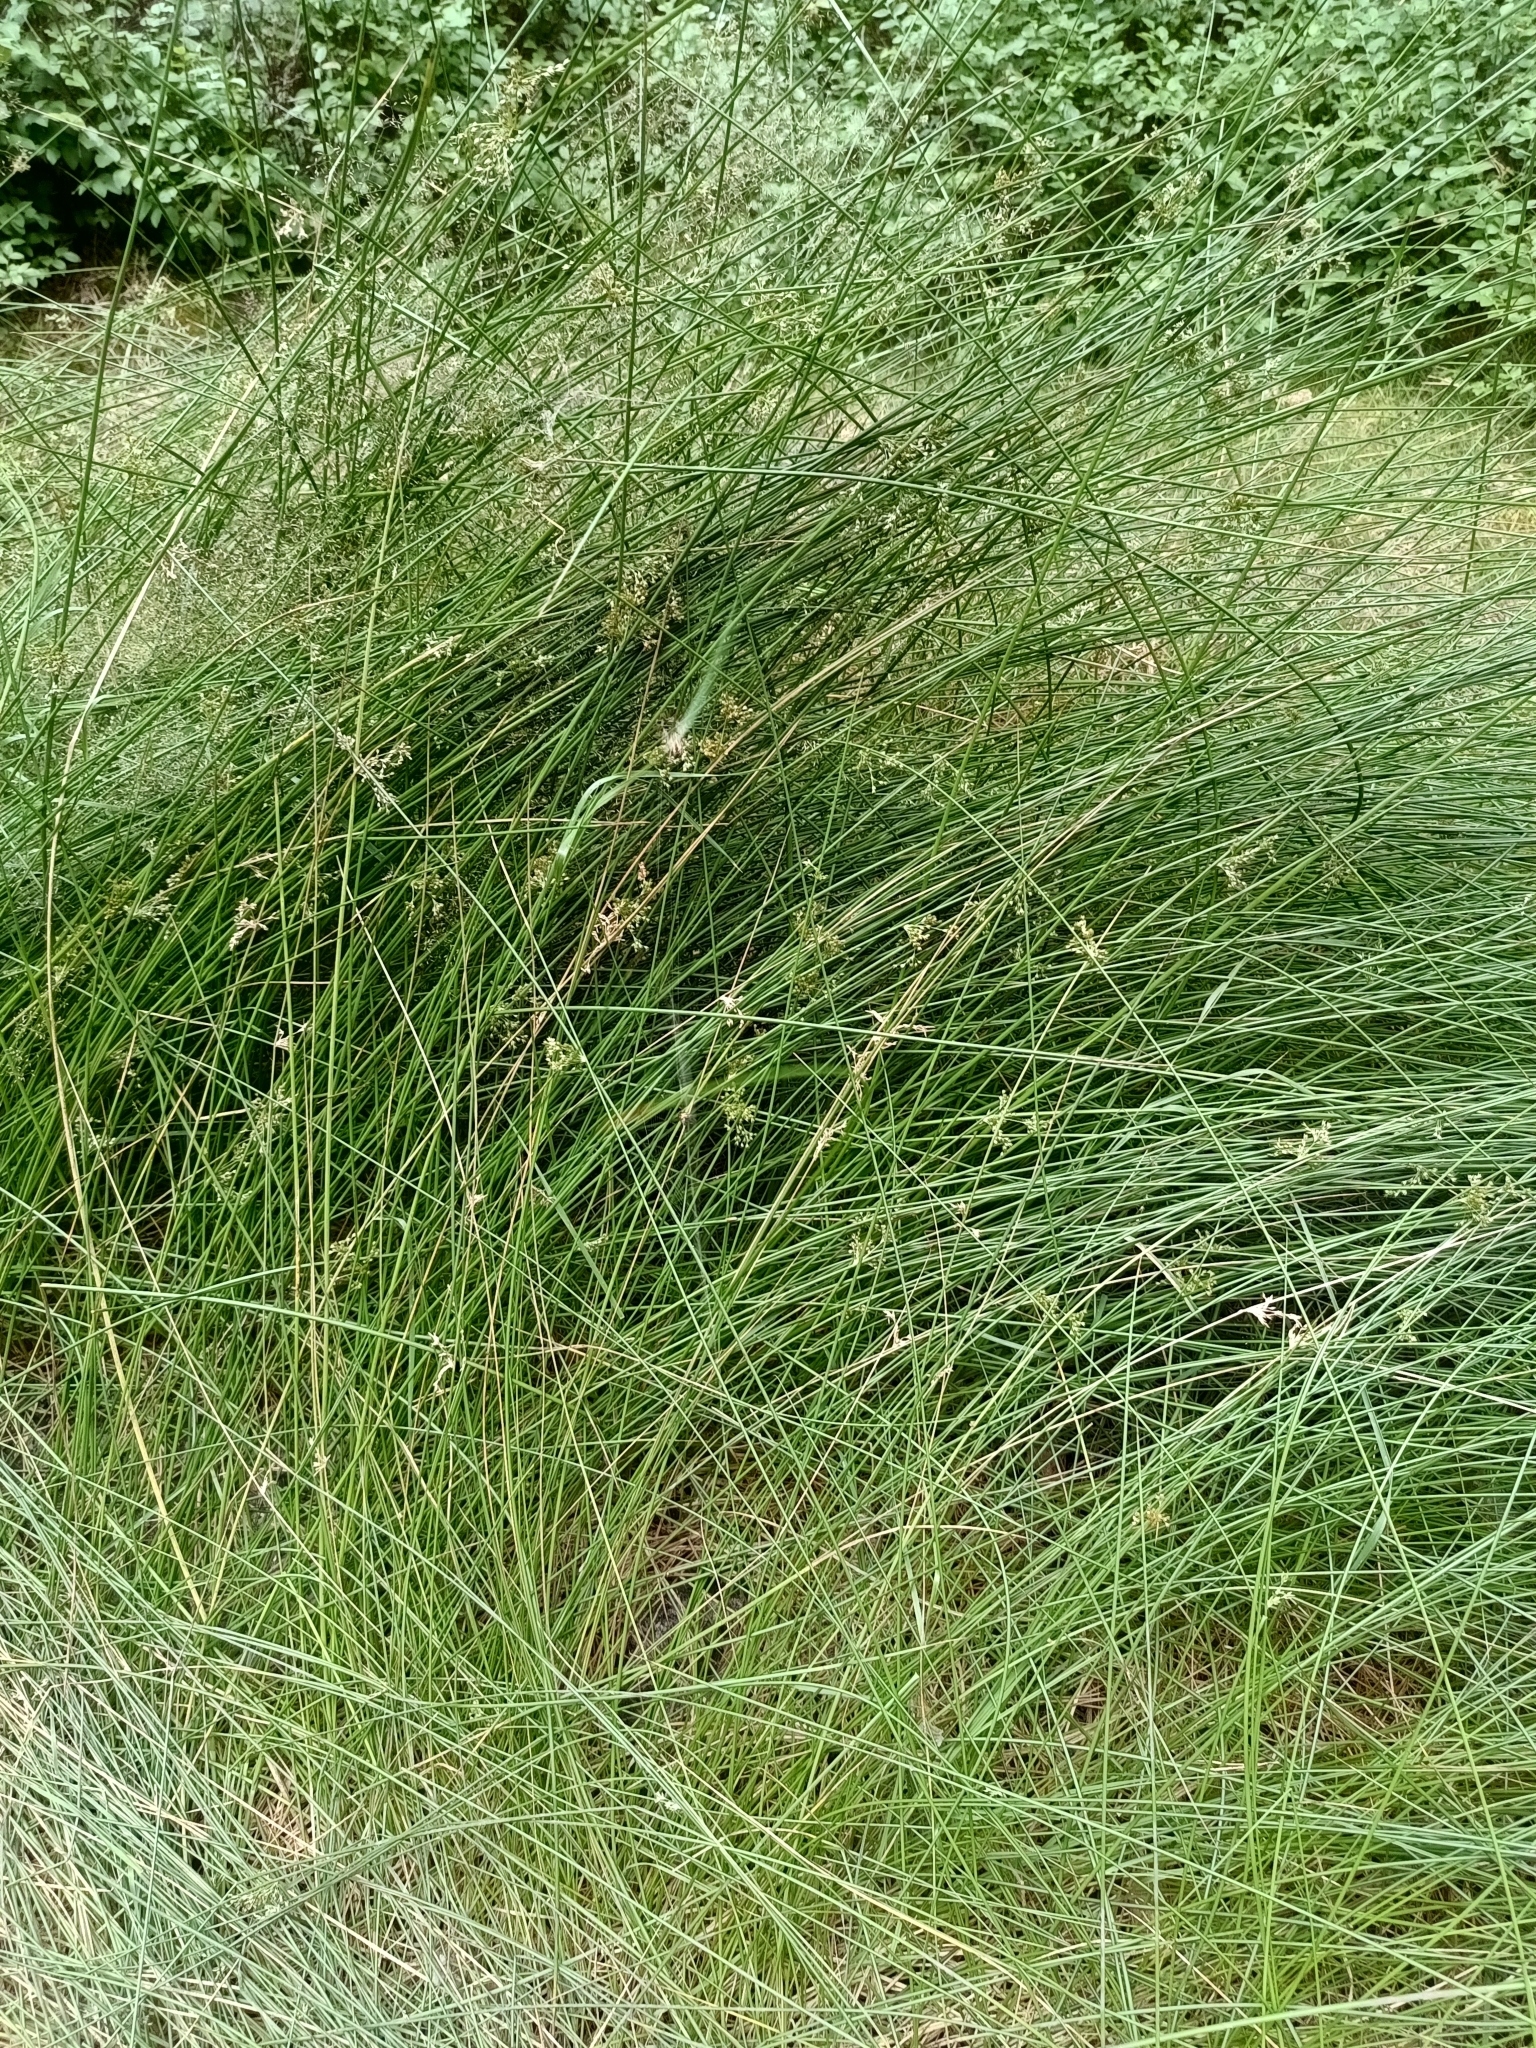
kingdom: Plantae
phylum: Tracheophyta
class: Liliopsida
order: Poales
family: Juncaceae
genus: Juncus
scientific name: Juncus effusus
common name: Soft rush
